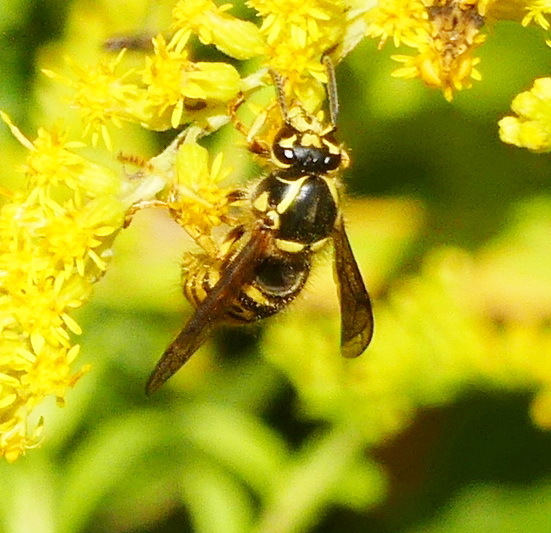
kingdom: Animalia
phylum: Arthropoda
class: Insecta
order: Hymenoptera
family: Vespidae
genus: Dolichovespula
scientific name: Dolichovespula arenaria
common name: Aerial yellowjacket
